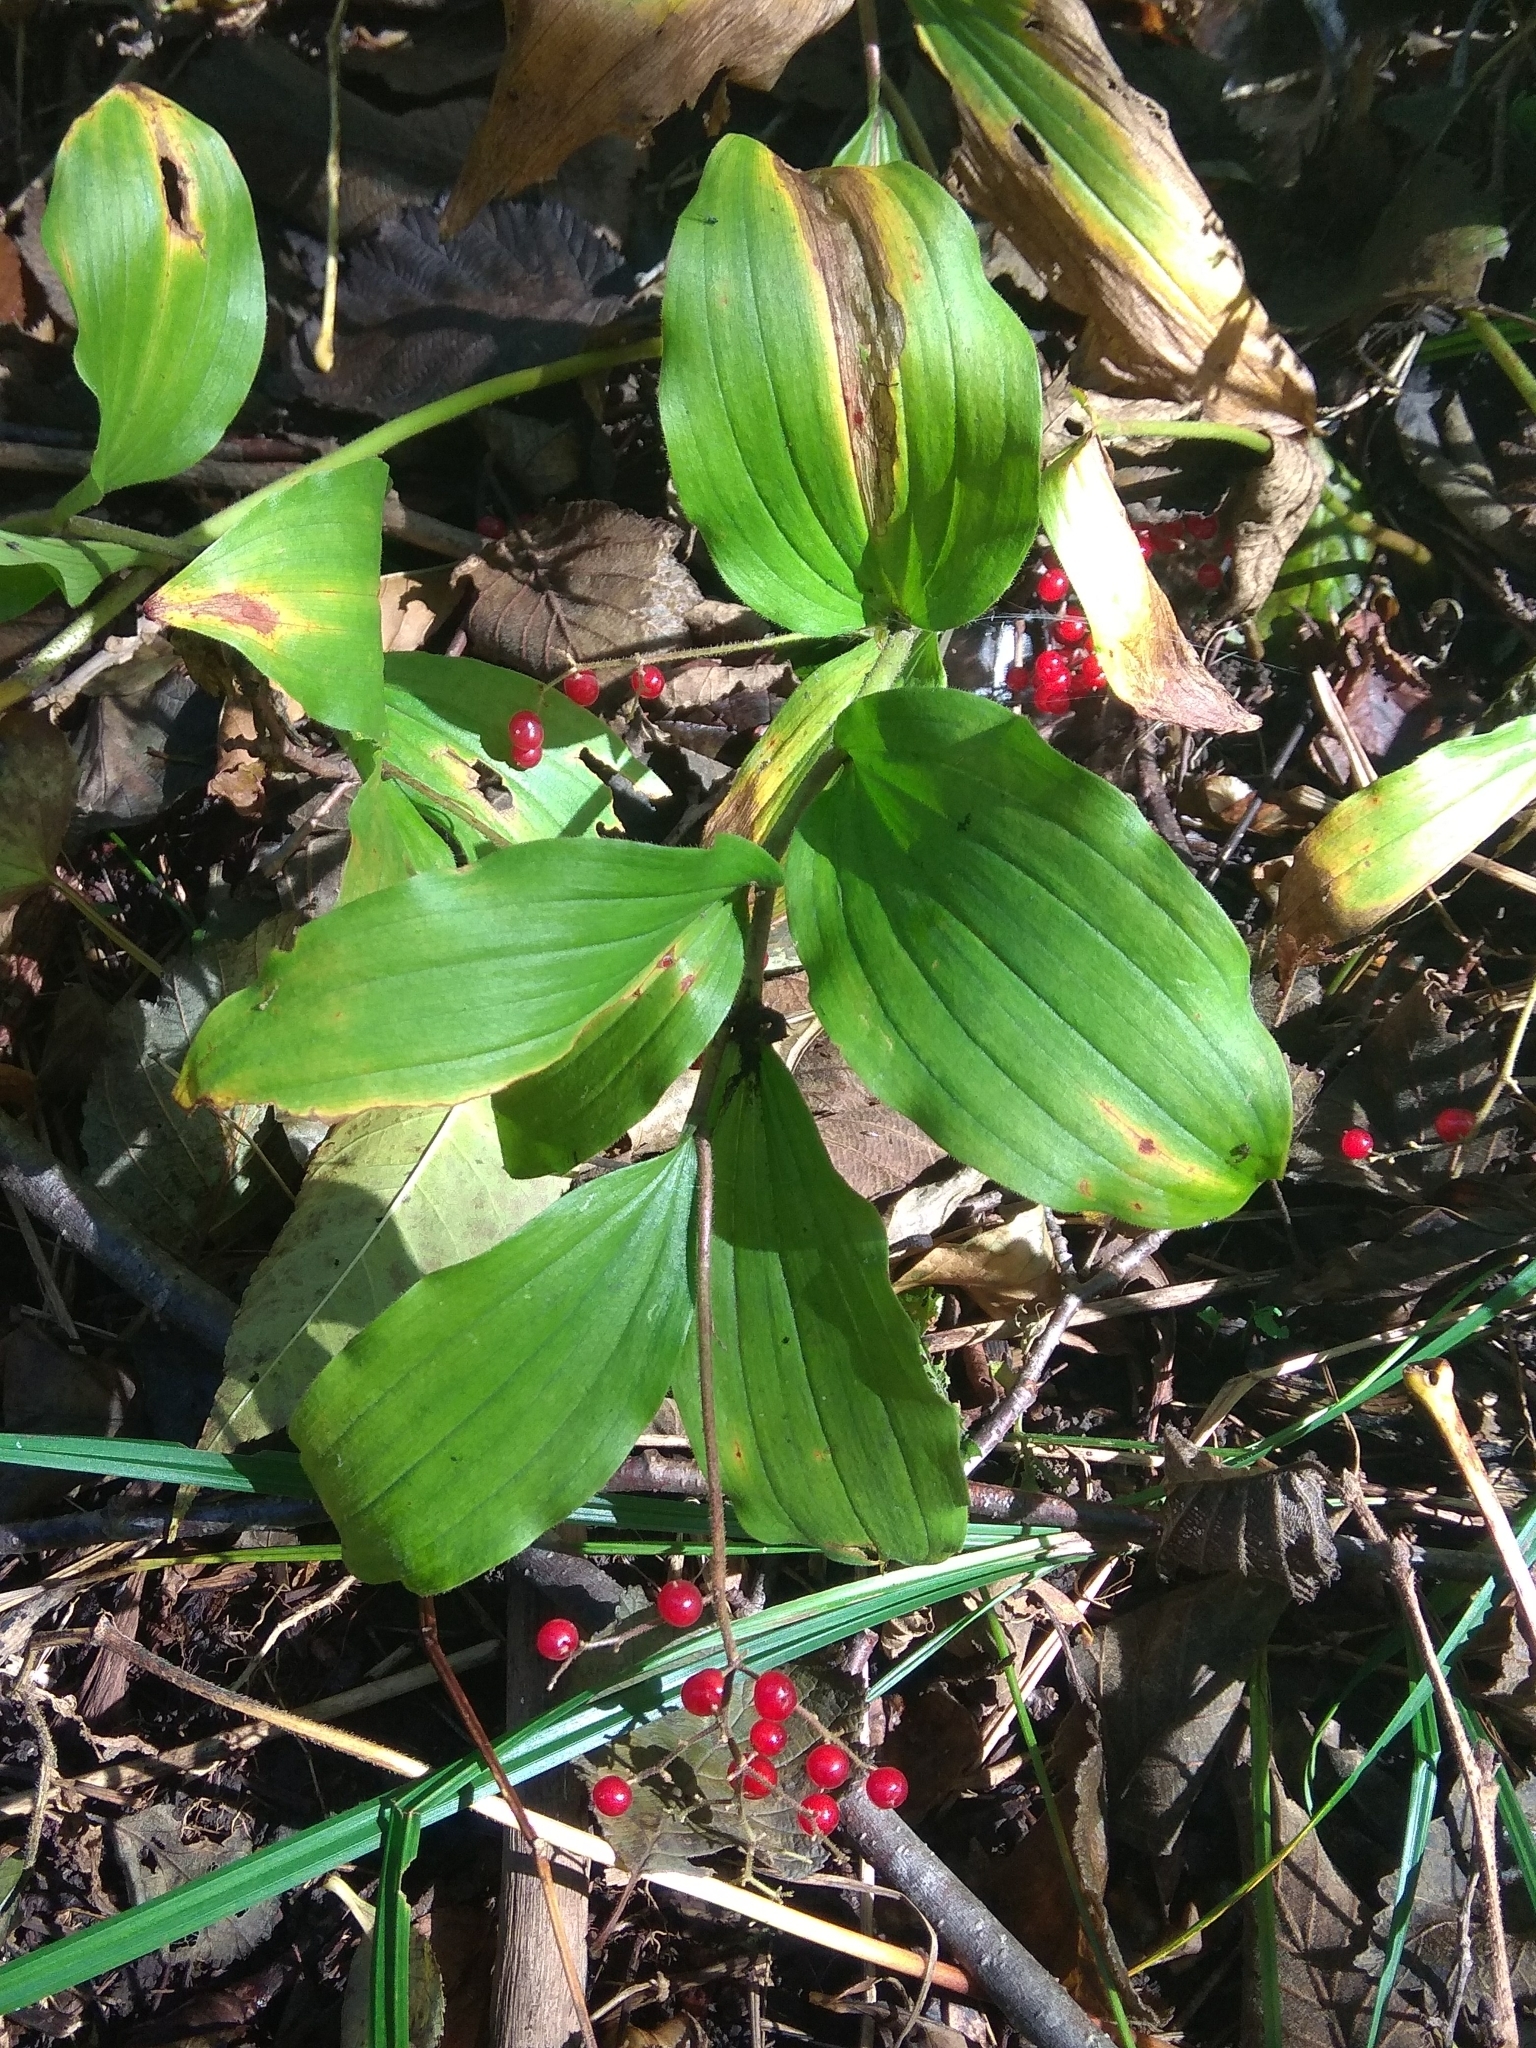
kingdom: Plantae
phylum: Tracheophyta
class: Liliopsida
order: Asparagales
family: Asparagaceae
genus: Maianthemum
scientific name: Maianthemum japonicum
